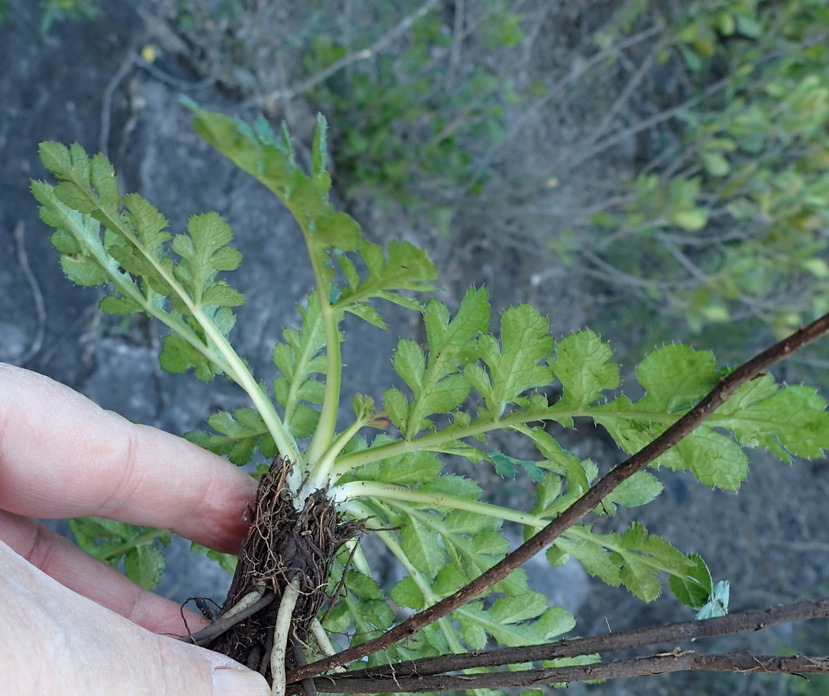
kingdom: Plantae
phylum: Tracheophyta
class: Magnoliopsida
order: Apiales
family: Apiaceae
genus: Lichtensteinia
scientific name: Lichtensteinia interrupta
